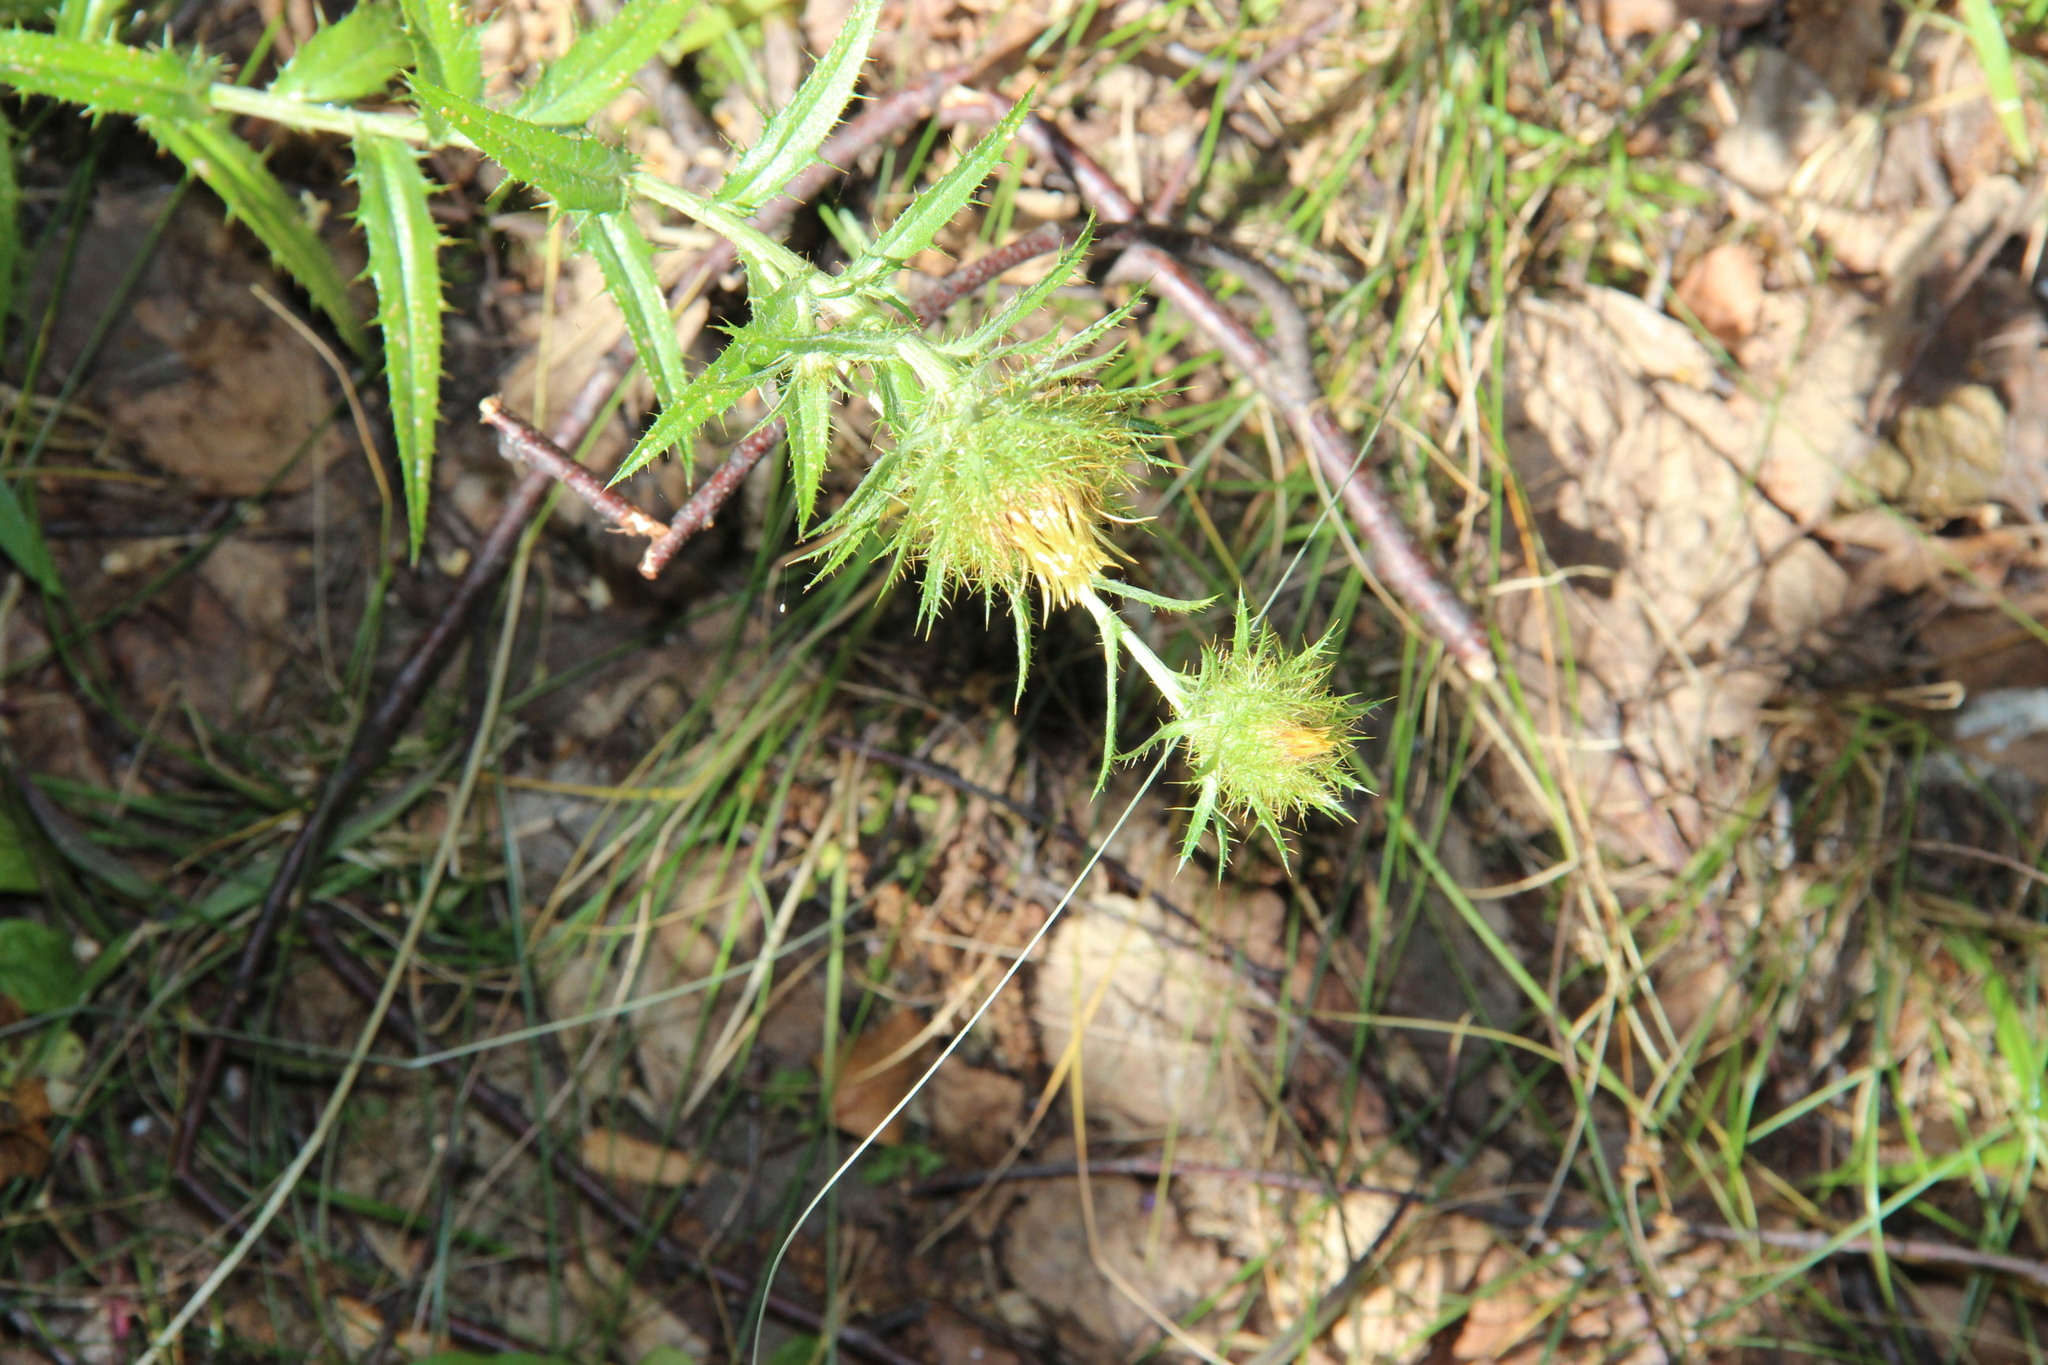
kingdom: Plantae
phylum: Tracheophyta
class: Magnoliopsida
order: Asterales
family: Asteraceae
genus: Carlina
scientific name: Carlina biebersteinii
